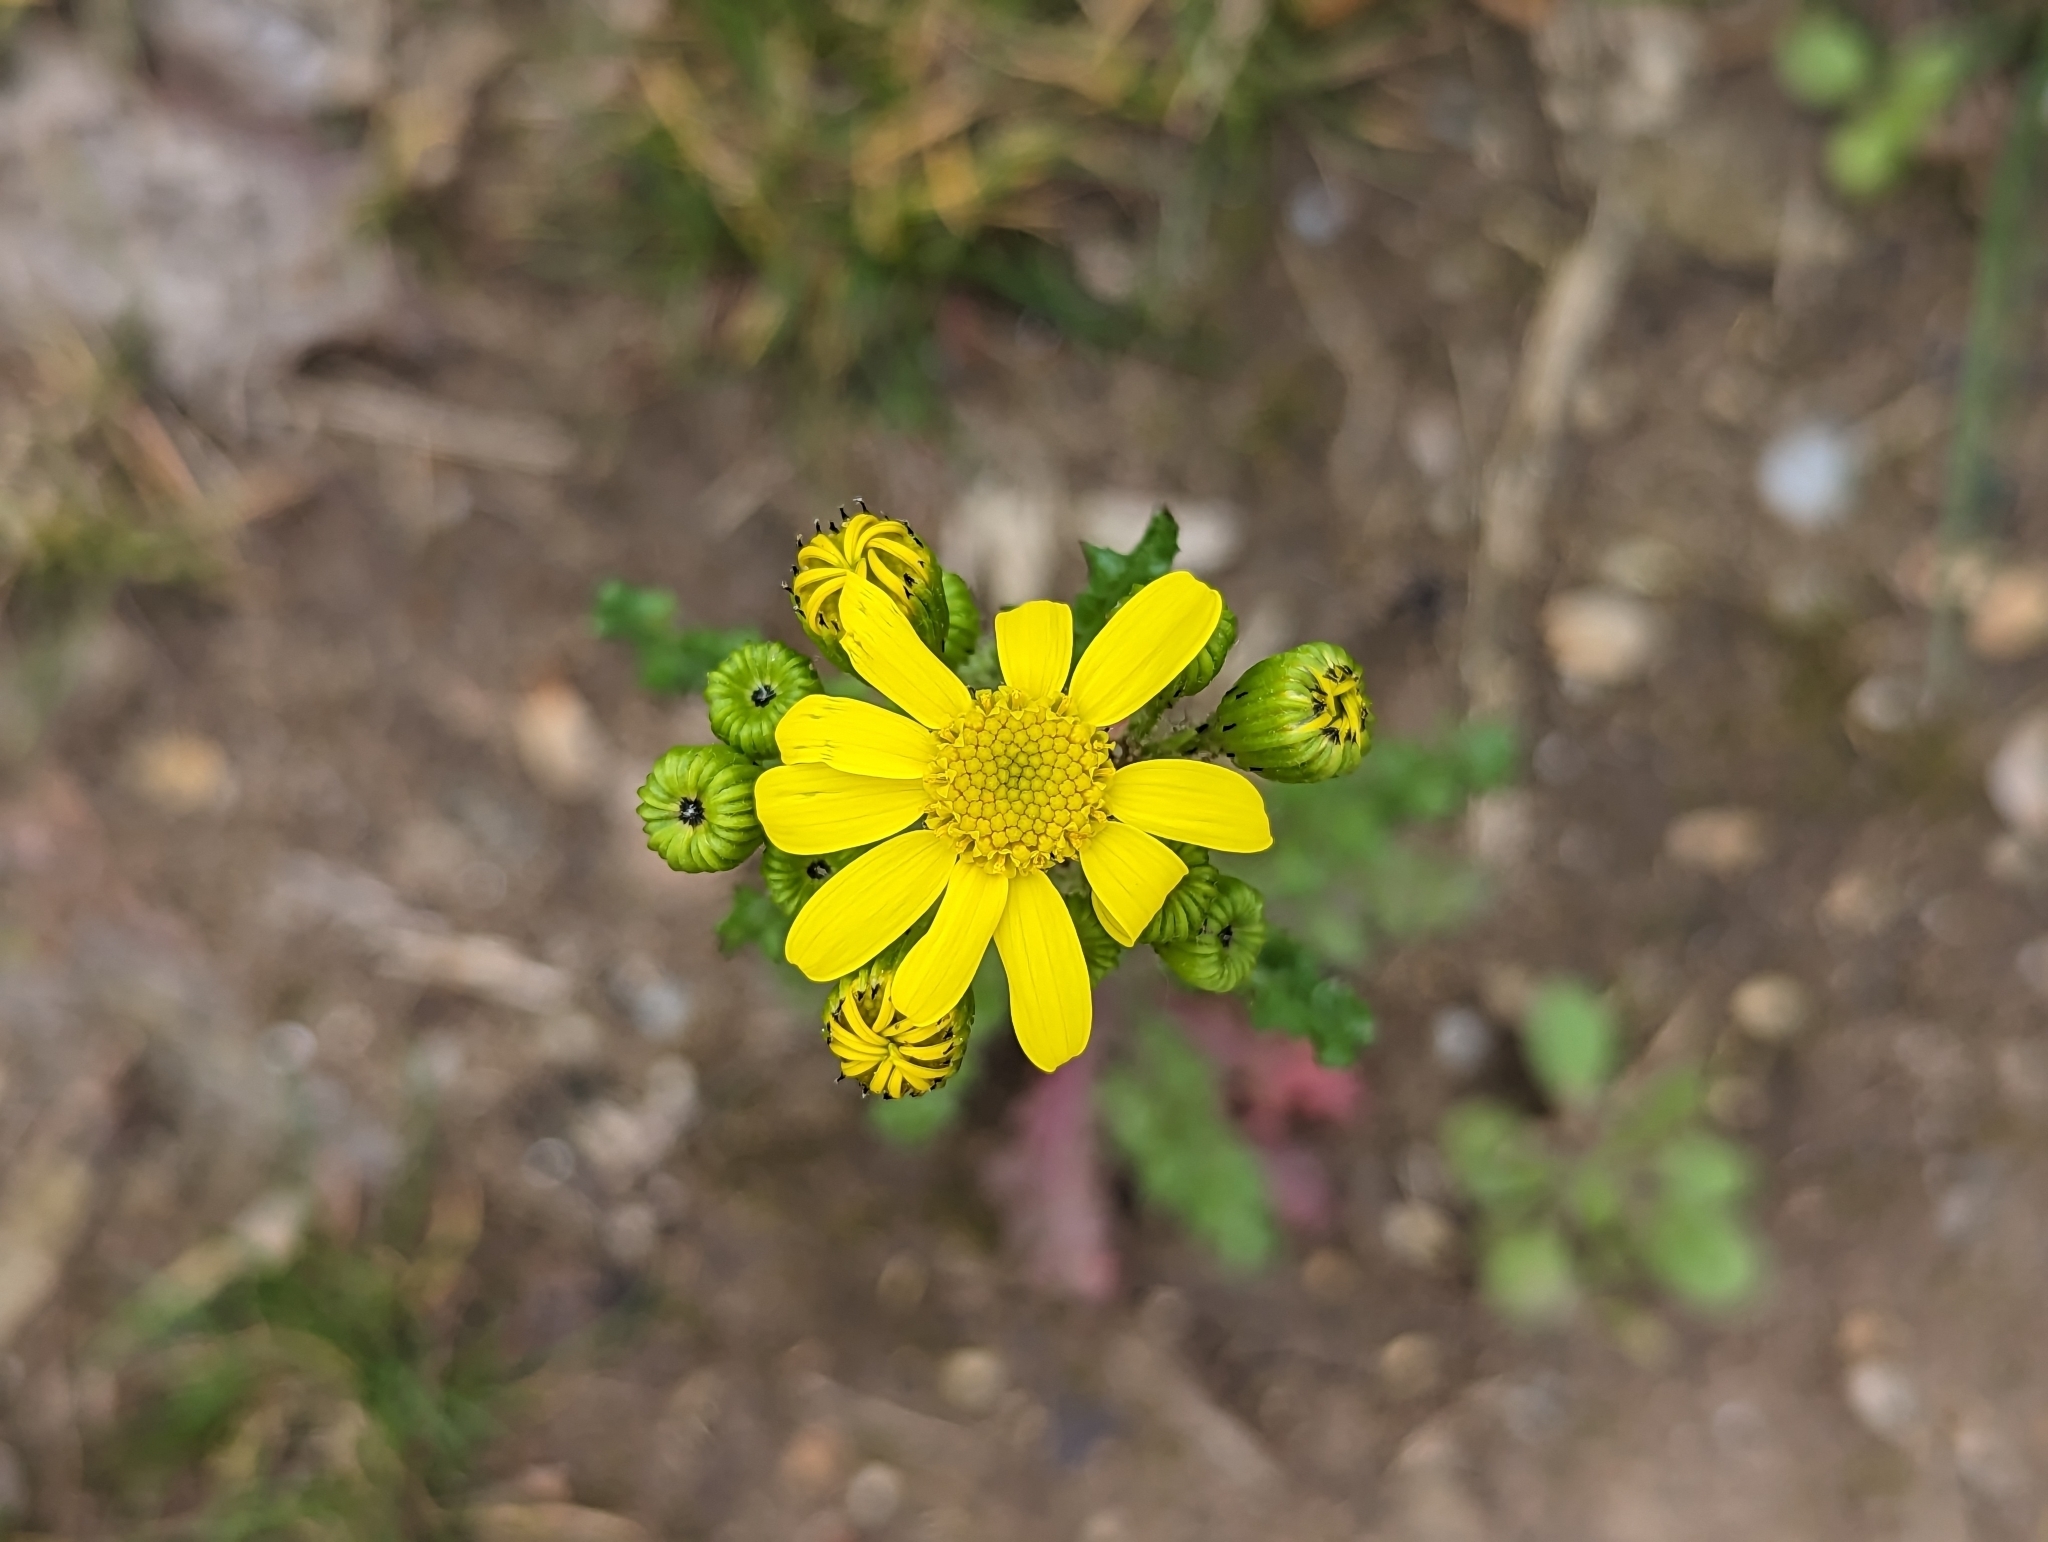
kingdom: Plantae
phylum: Tracheophyta
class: Magnoliopsida
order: Asterales
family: Asteraceae
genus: Senecio
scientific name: Senecio vernalis
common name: Eastern groundsel
